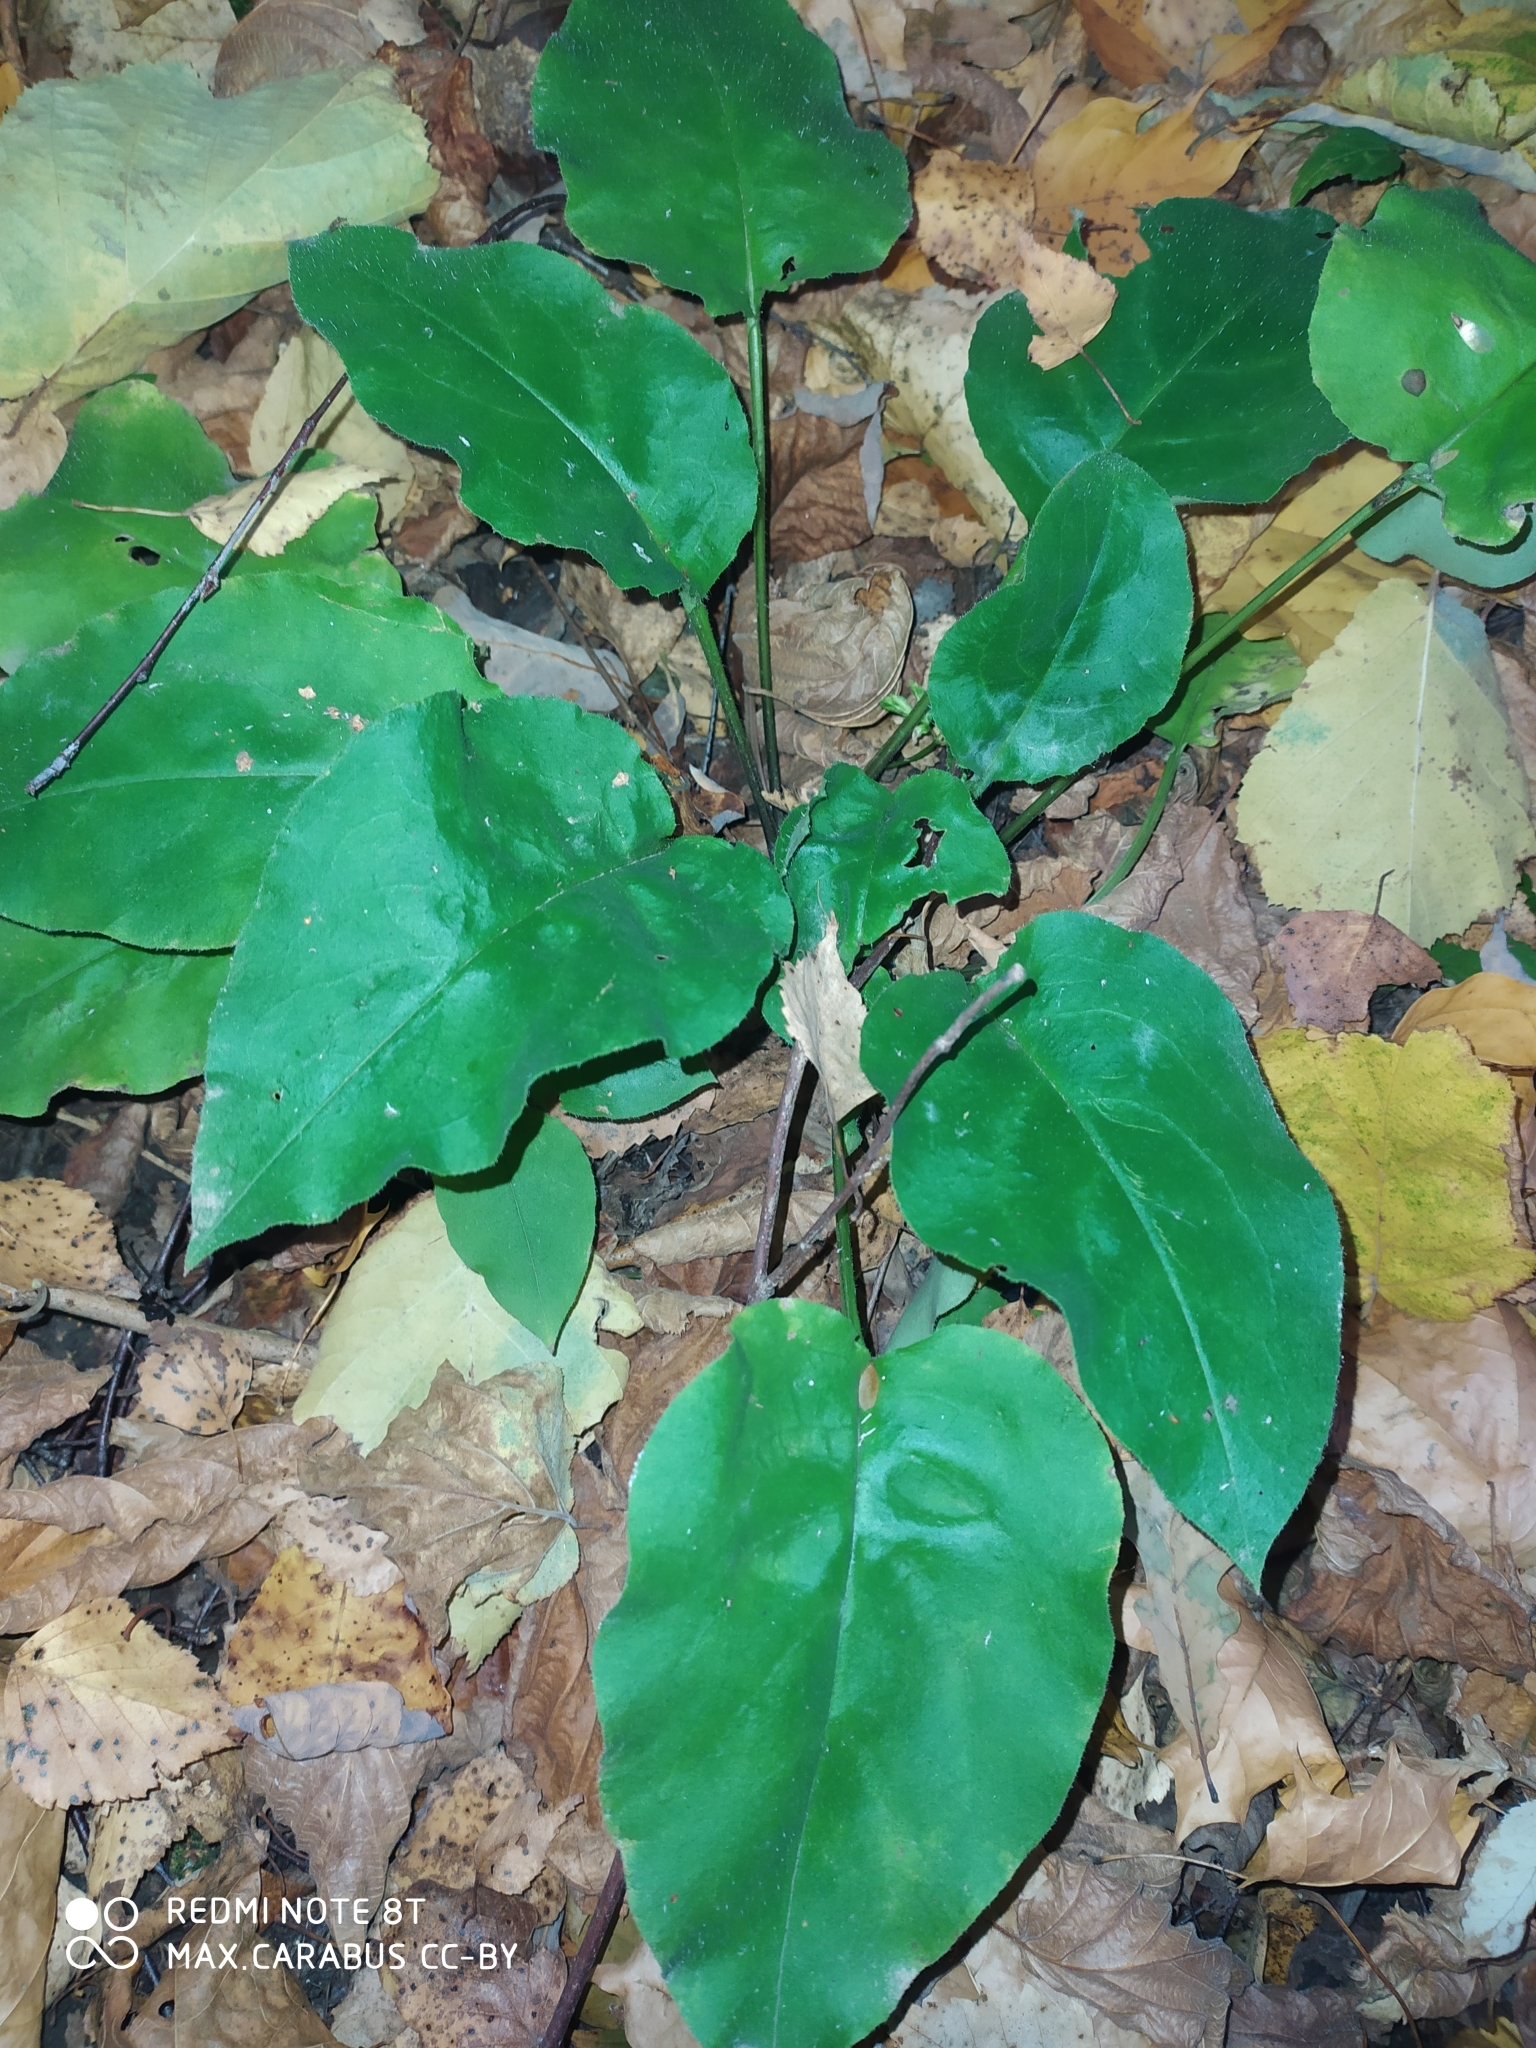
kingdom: Plantae
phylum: Tracheophyta
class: Magnoliopsida
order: Boraginales
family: Boraginaceae
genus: Pulmonaria
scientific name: Pulmonaria obscura
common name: Suffolk lungwort
